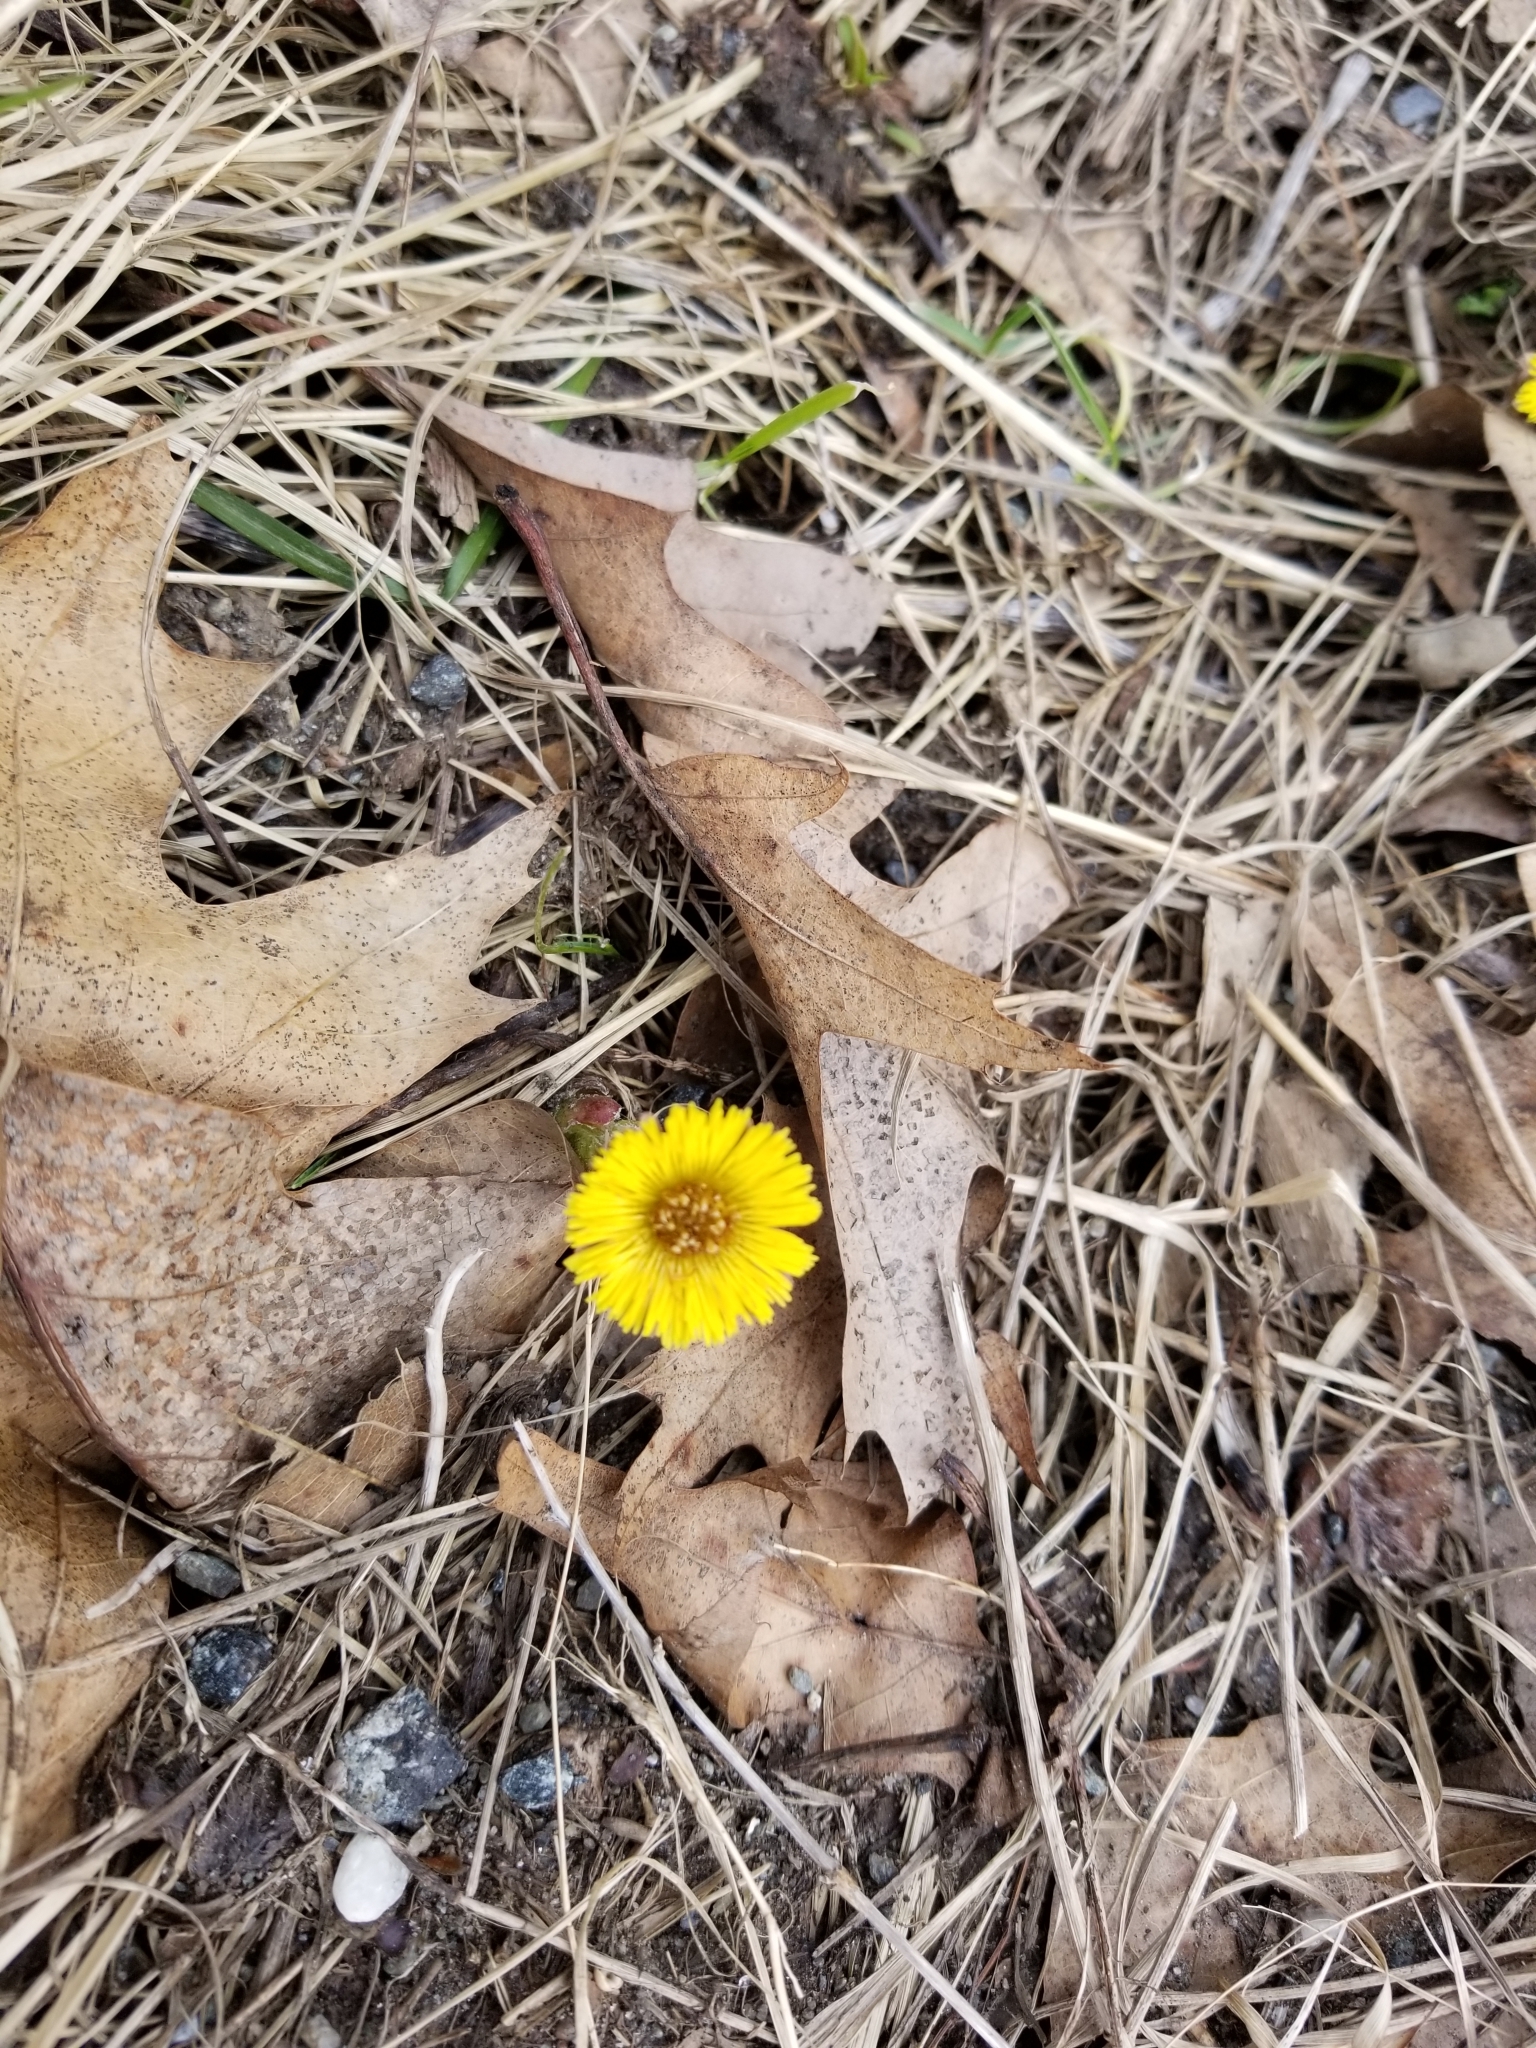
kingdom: Plantae
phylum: Tracheophyta
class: Magnoliopsida
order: Asterales
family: Asteraceae
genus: Tussilago
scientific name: Tussilago farfara
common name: Coltsfoot
